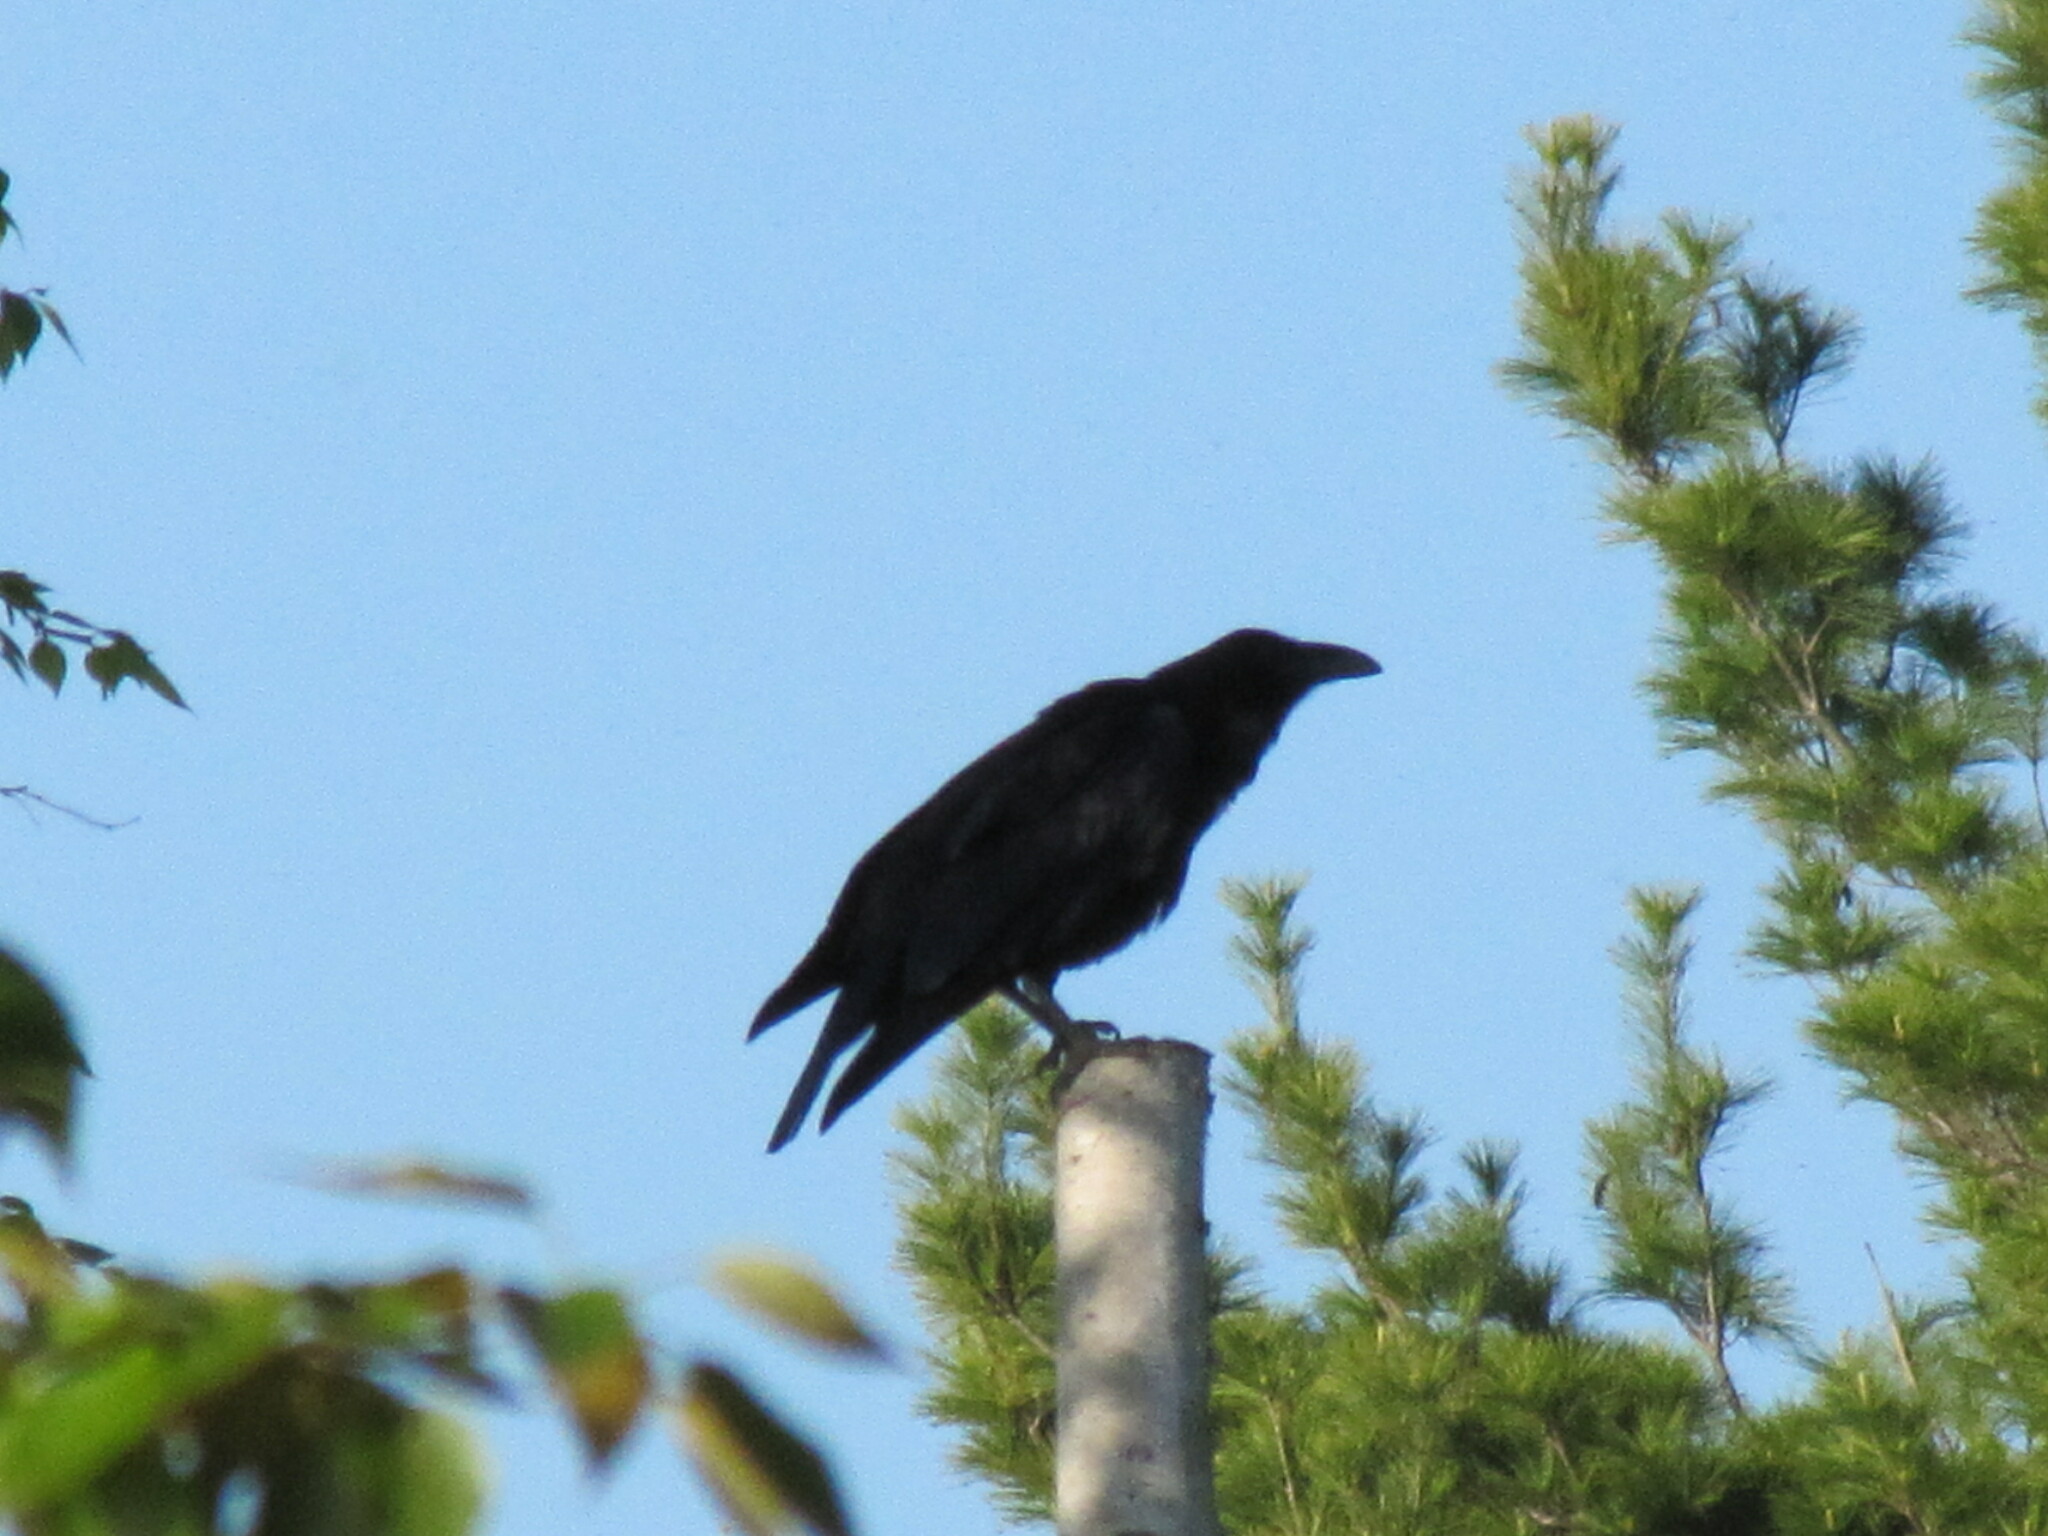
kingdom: Animalia
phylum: Chordata
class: Aves
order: Passeriformes
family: Corvidae
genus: Corvus
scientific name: Corvus corax
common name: Common raven
